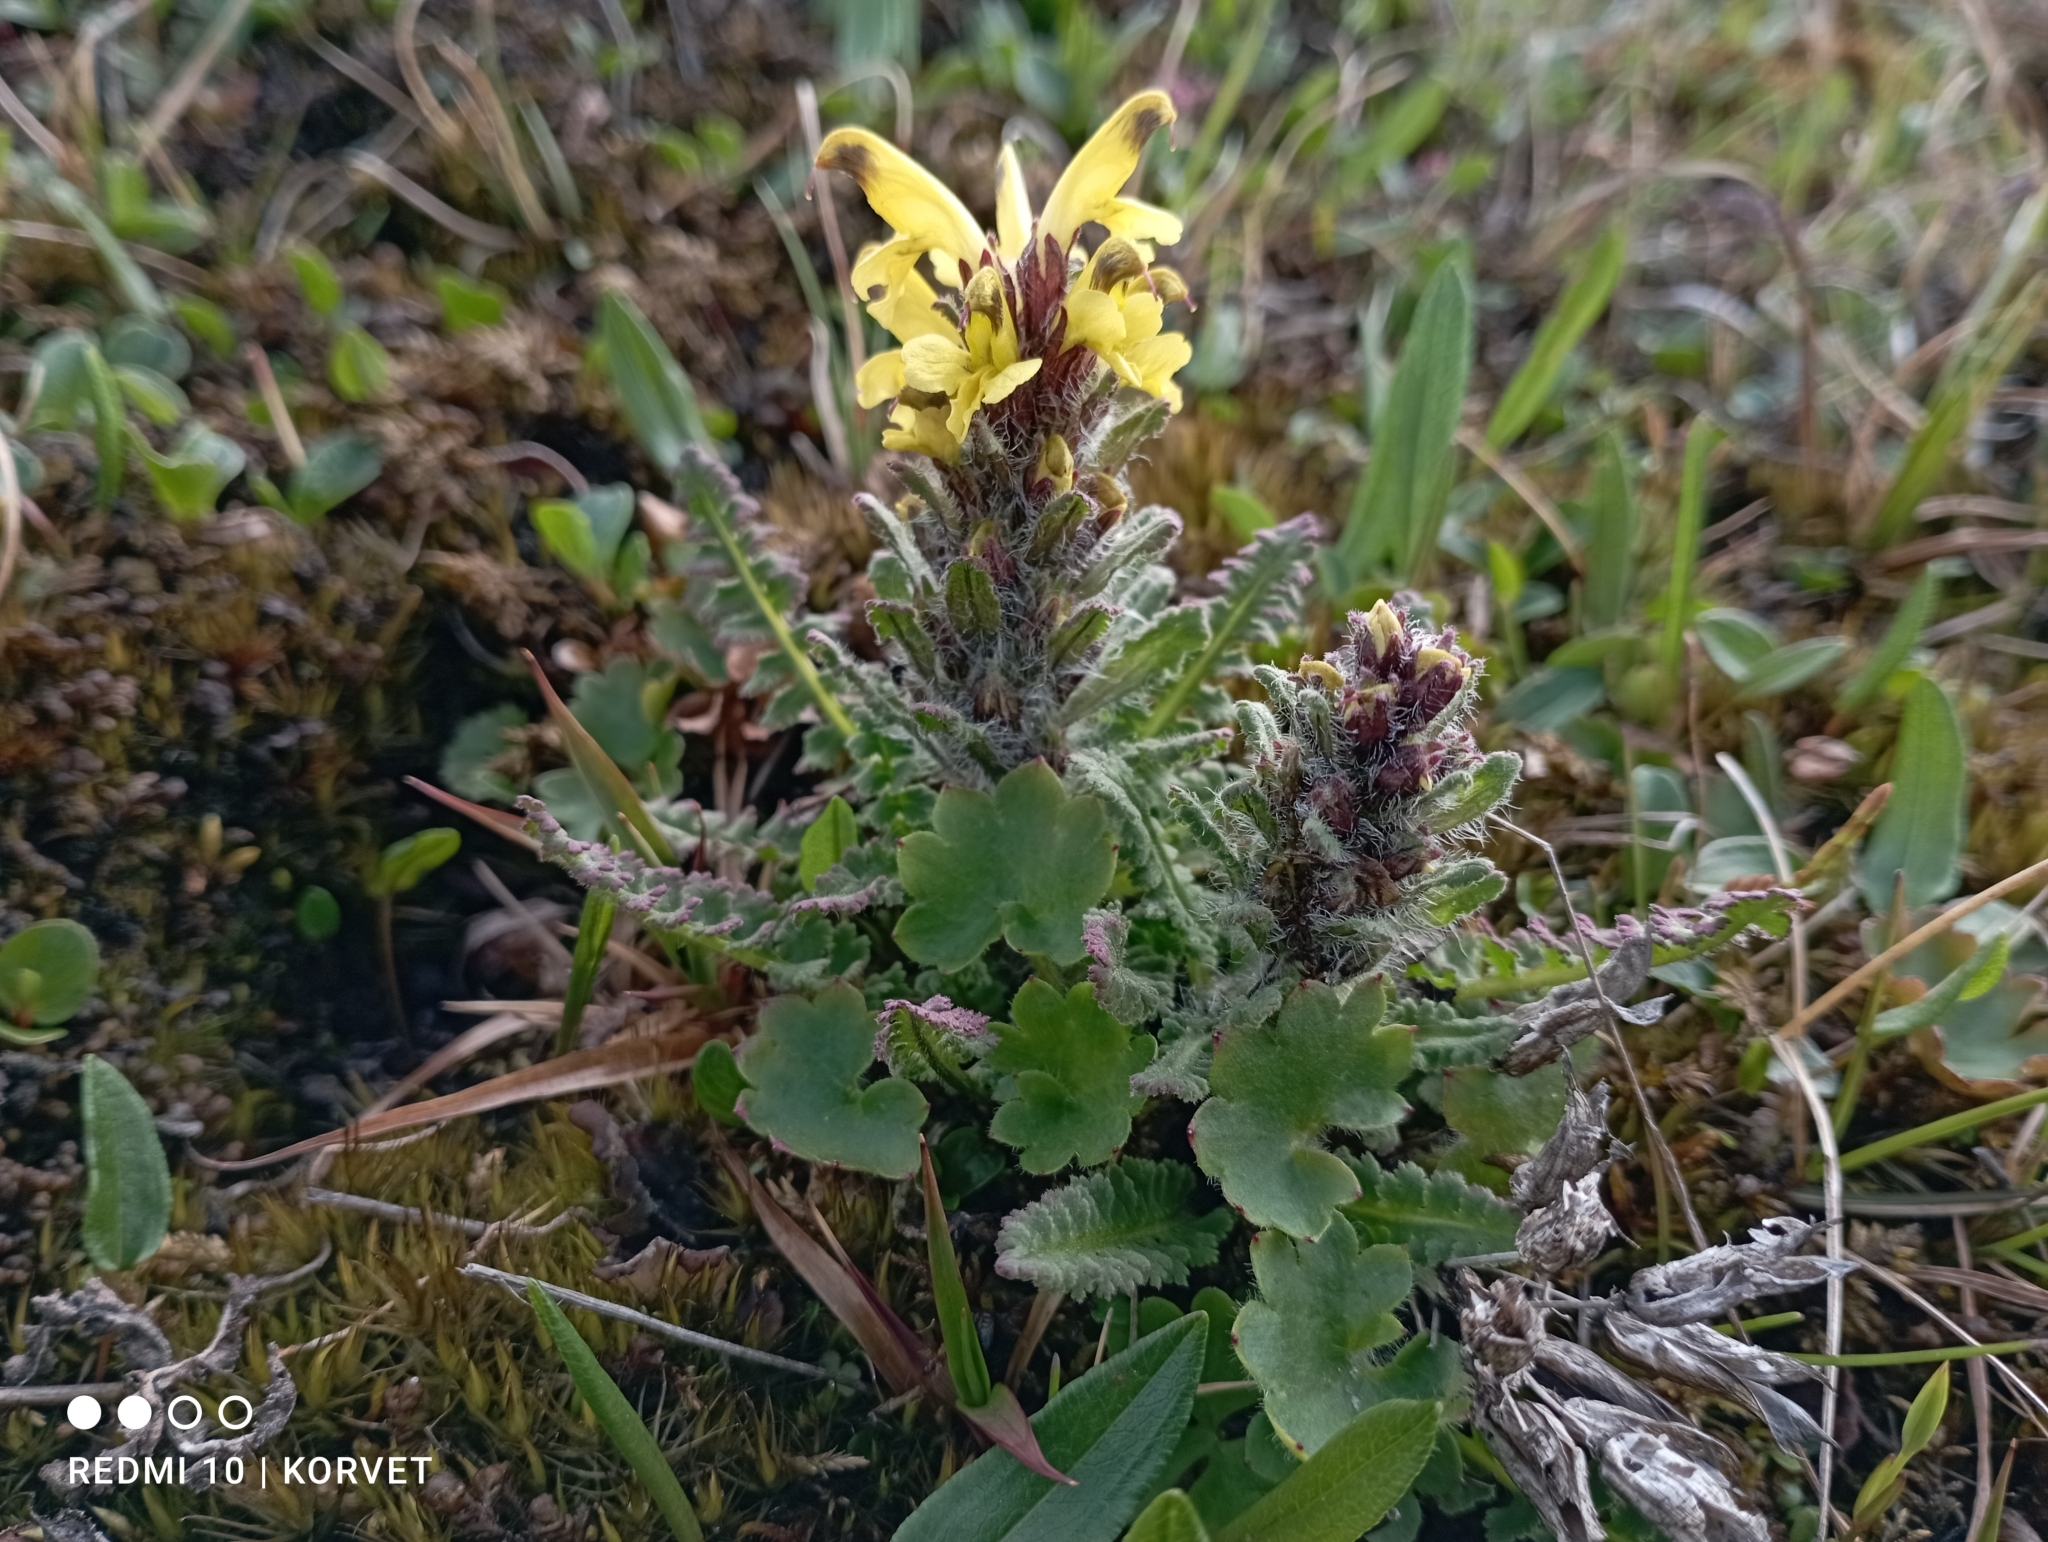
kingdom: Plantae
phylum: Tracheophyta
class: Magnoliopsida
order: Lamiales
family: Orobanchaceae
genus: Pedicularis
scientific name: Pedicularis oederi
